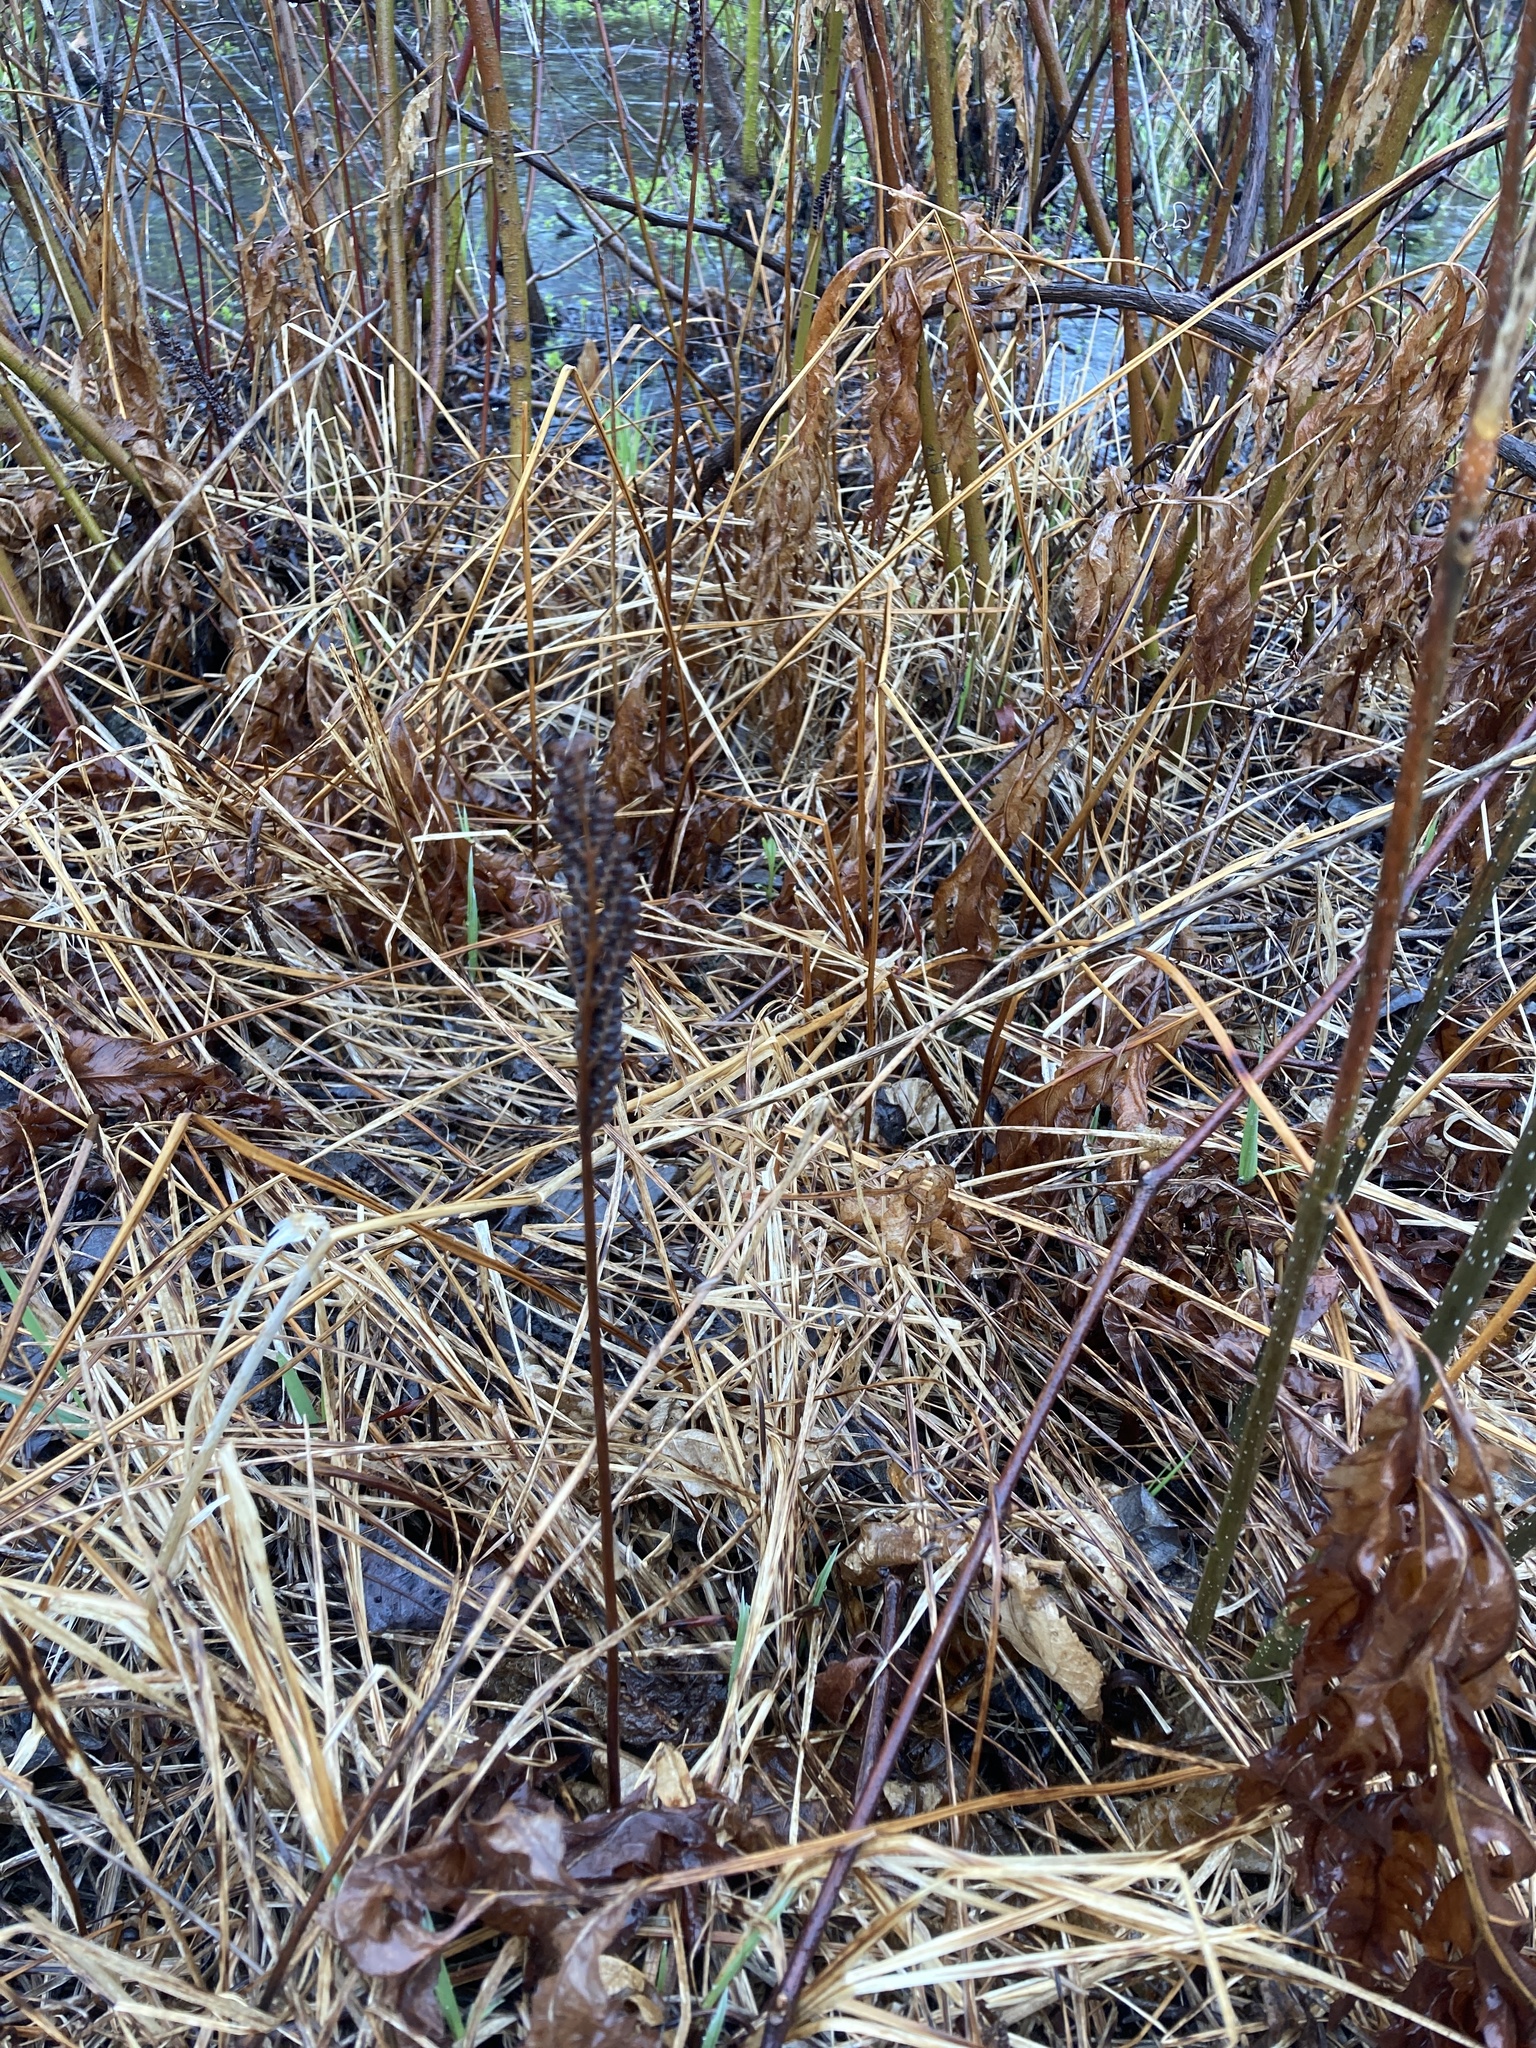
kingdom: Plantae
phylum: Tracheophyta
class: Polypodiopsida
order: Polypodiales
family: Onocleaceae
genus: Onoclea
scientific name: Onoclea sensibilis
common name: Sensitive fern
